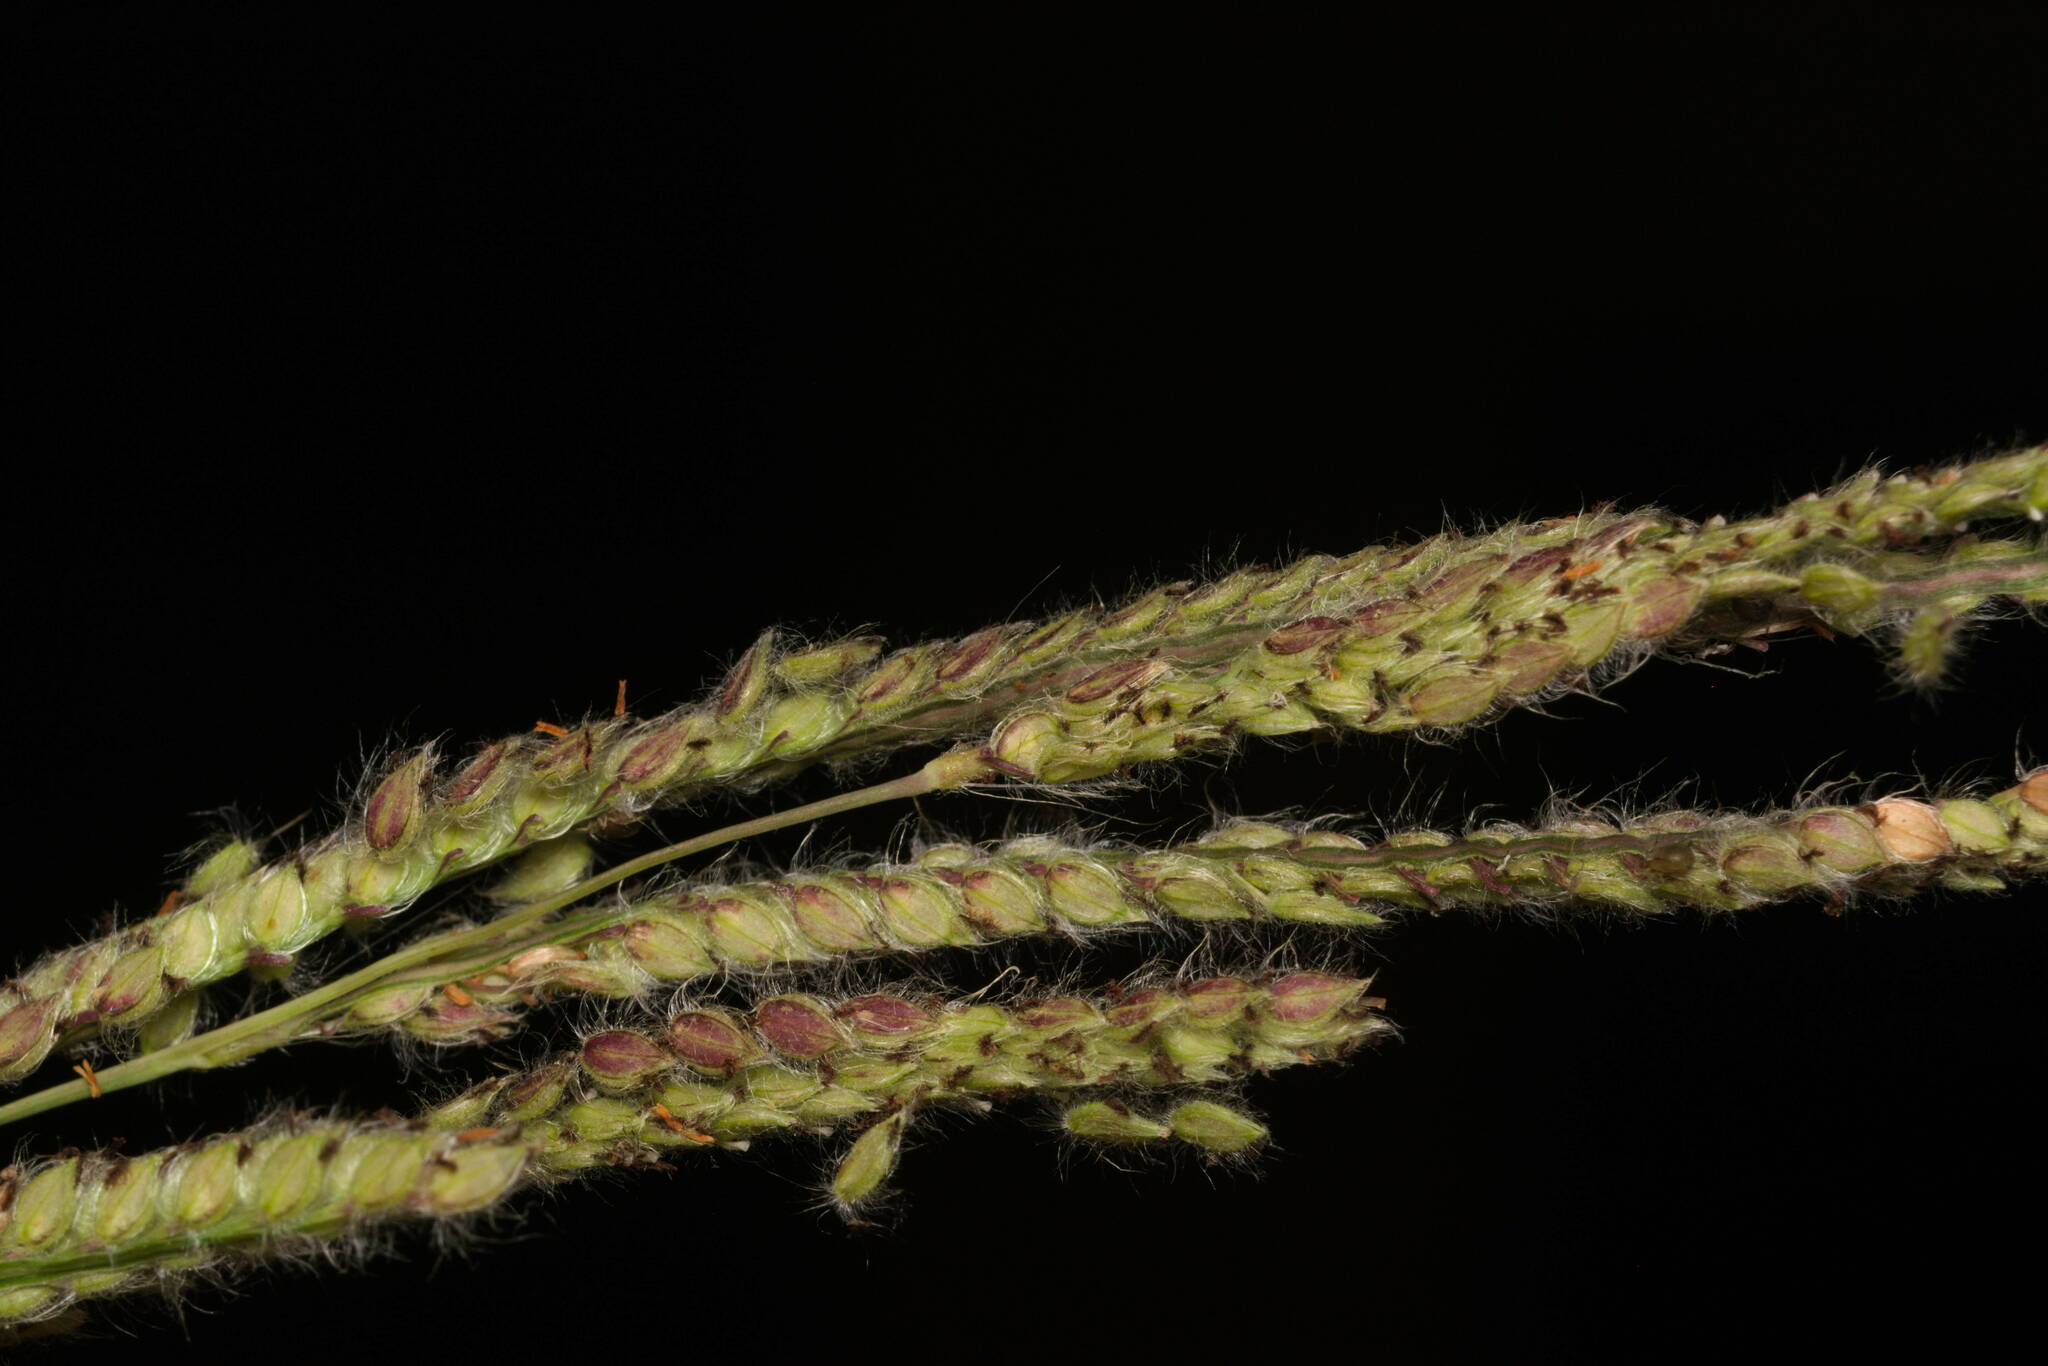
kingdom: Plantae
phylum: Tracheophyta
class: Liliopsida
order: Poales
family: Poaceae
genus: Paspalum
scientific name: Paspalum urvillei
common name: Vasey's grass
